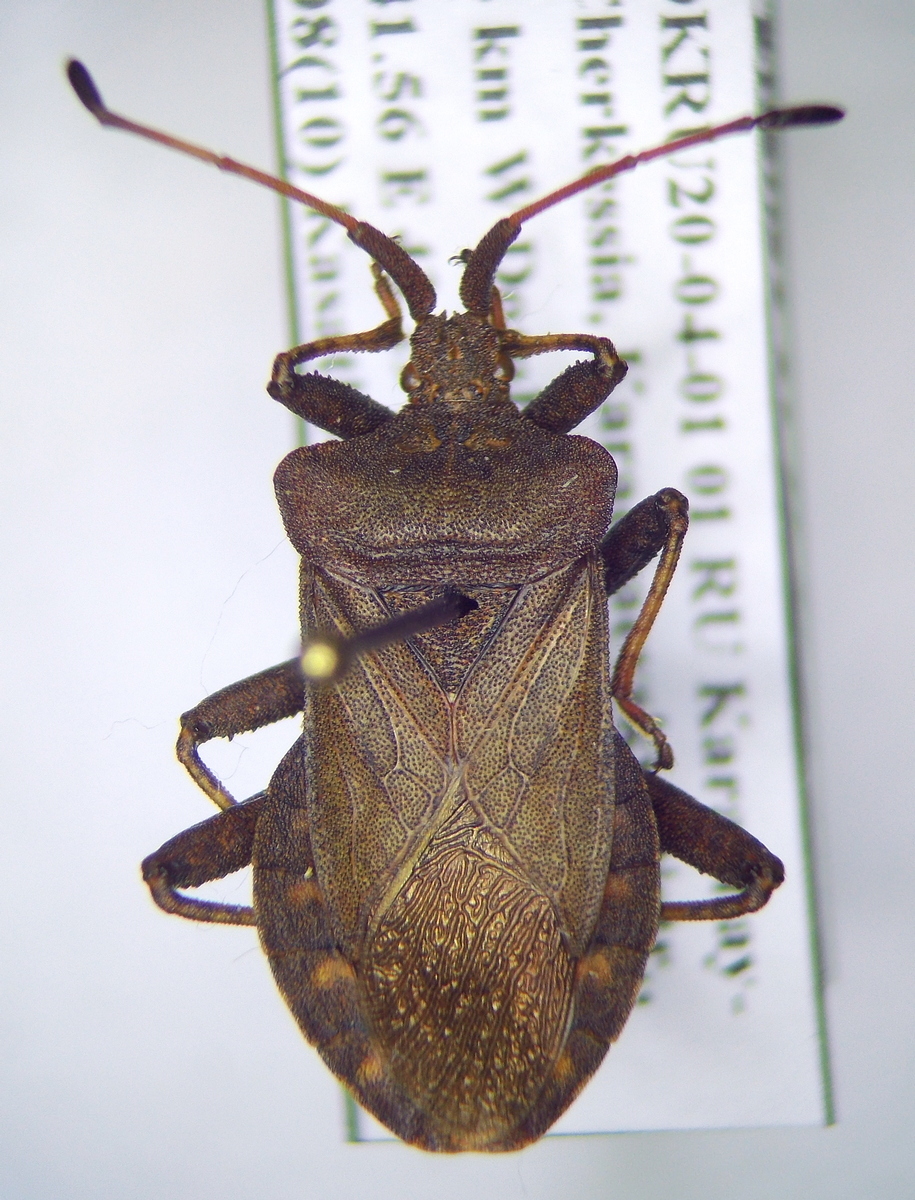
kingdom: Animalia
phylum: Arthropoda
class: Insecta
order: Hemiptera
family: Coreidae
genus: Coreus
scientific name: Coreus marginatus
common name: Dock bug
